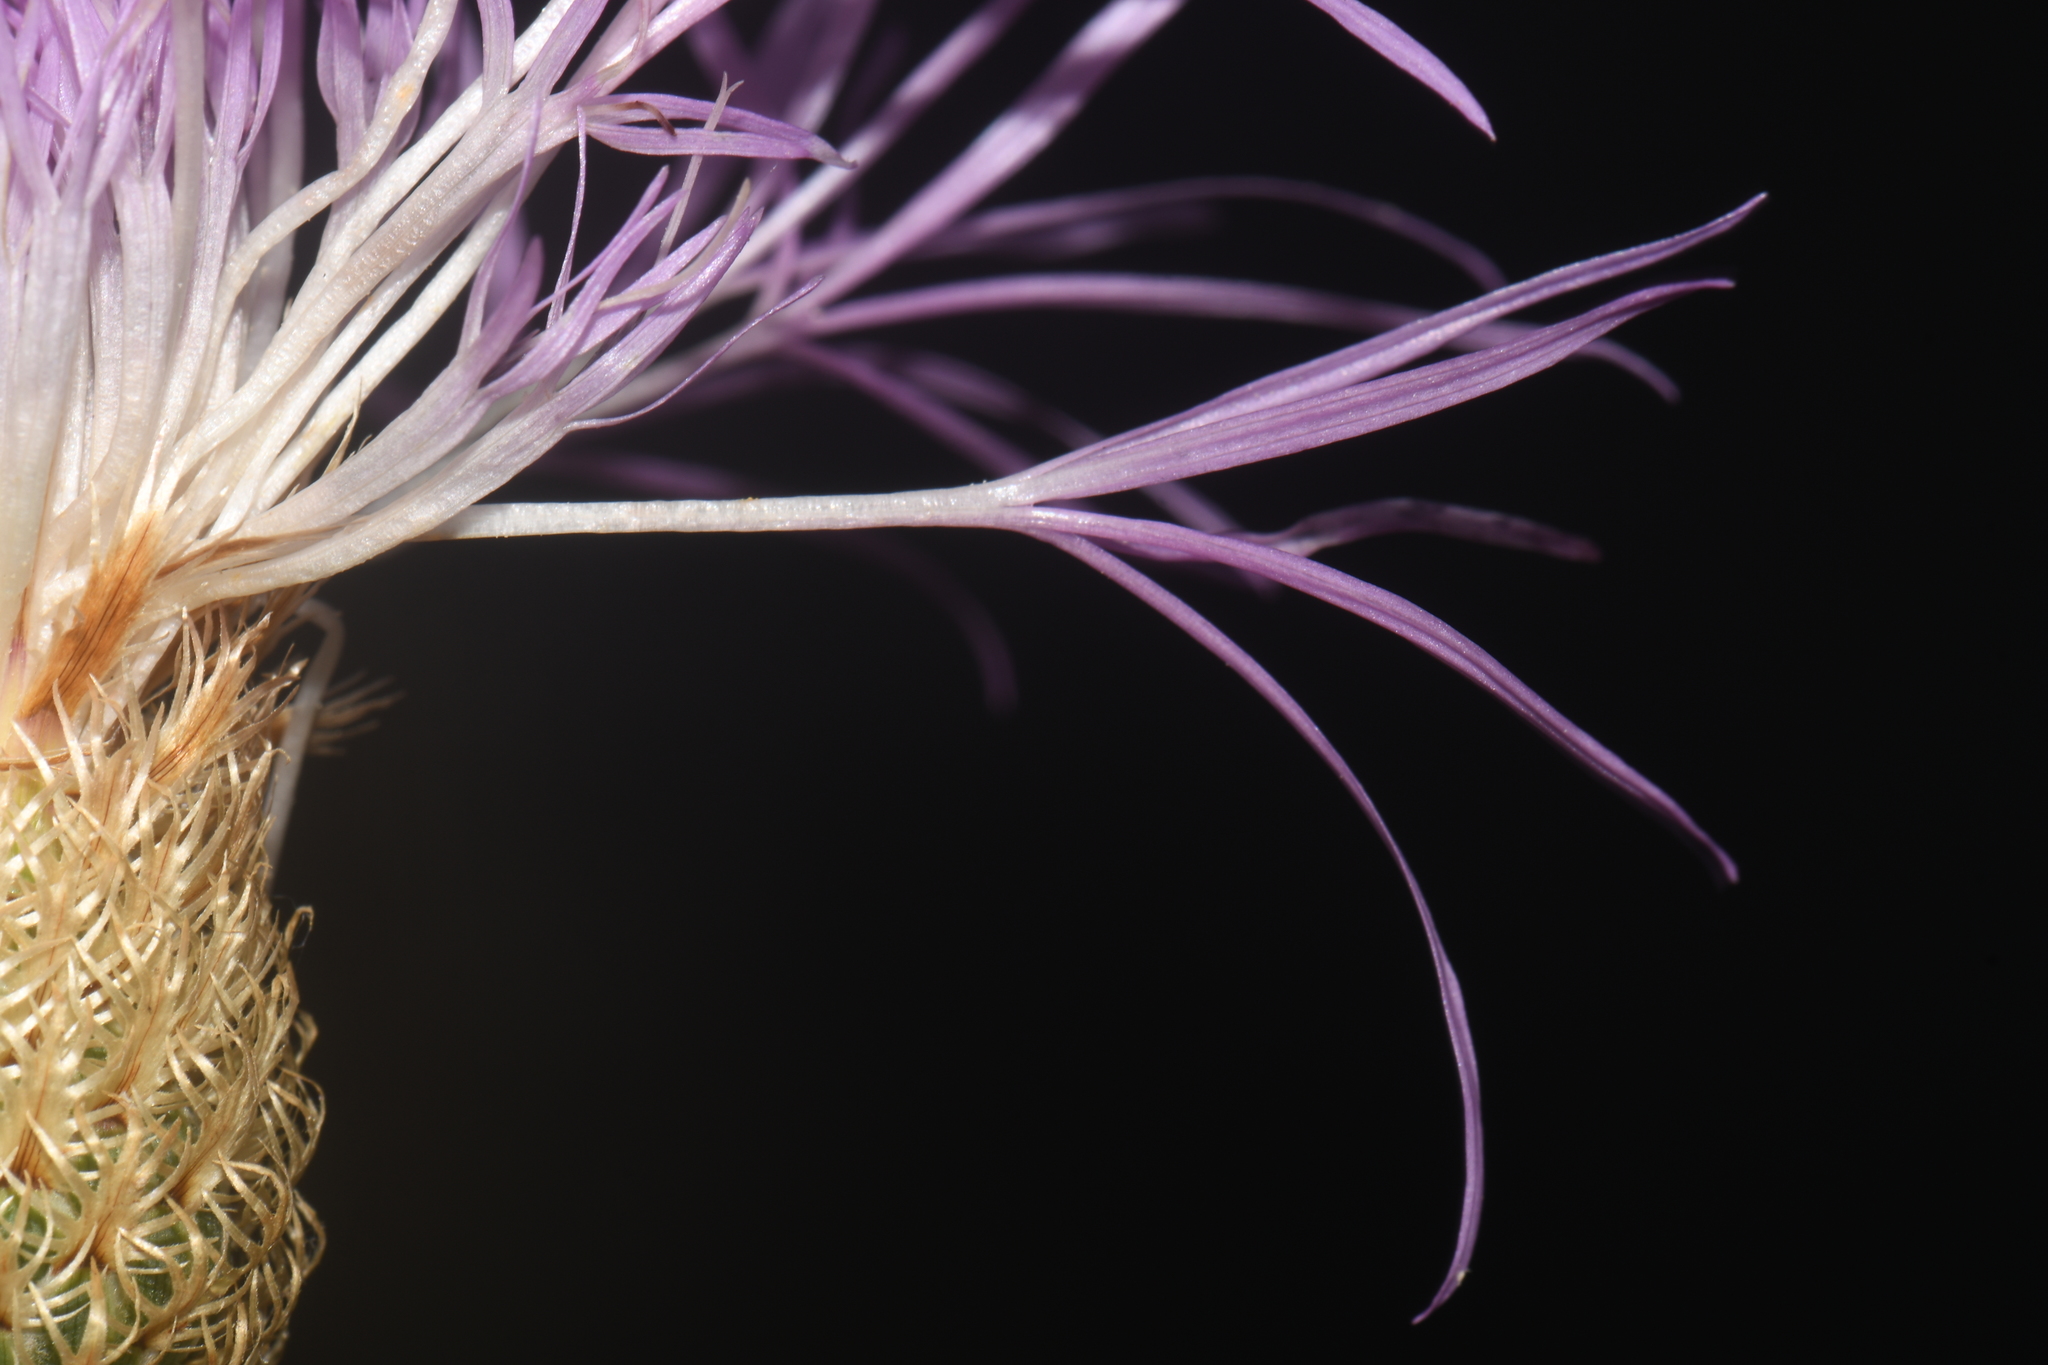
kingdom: Plantae
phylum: Tracheophyta
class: Magnoliopsida
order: Asterales
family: Asteraceae
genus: Plectocephalus
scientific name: Plectocephalus americanus
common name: American basket-flower
